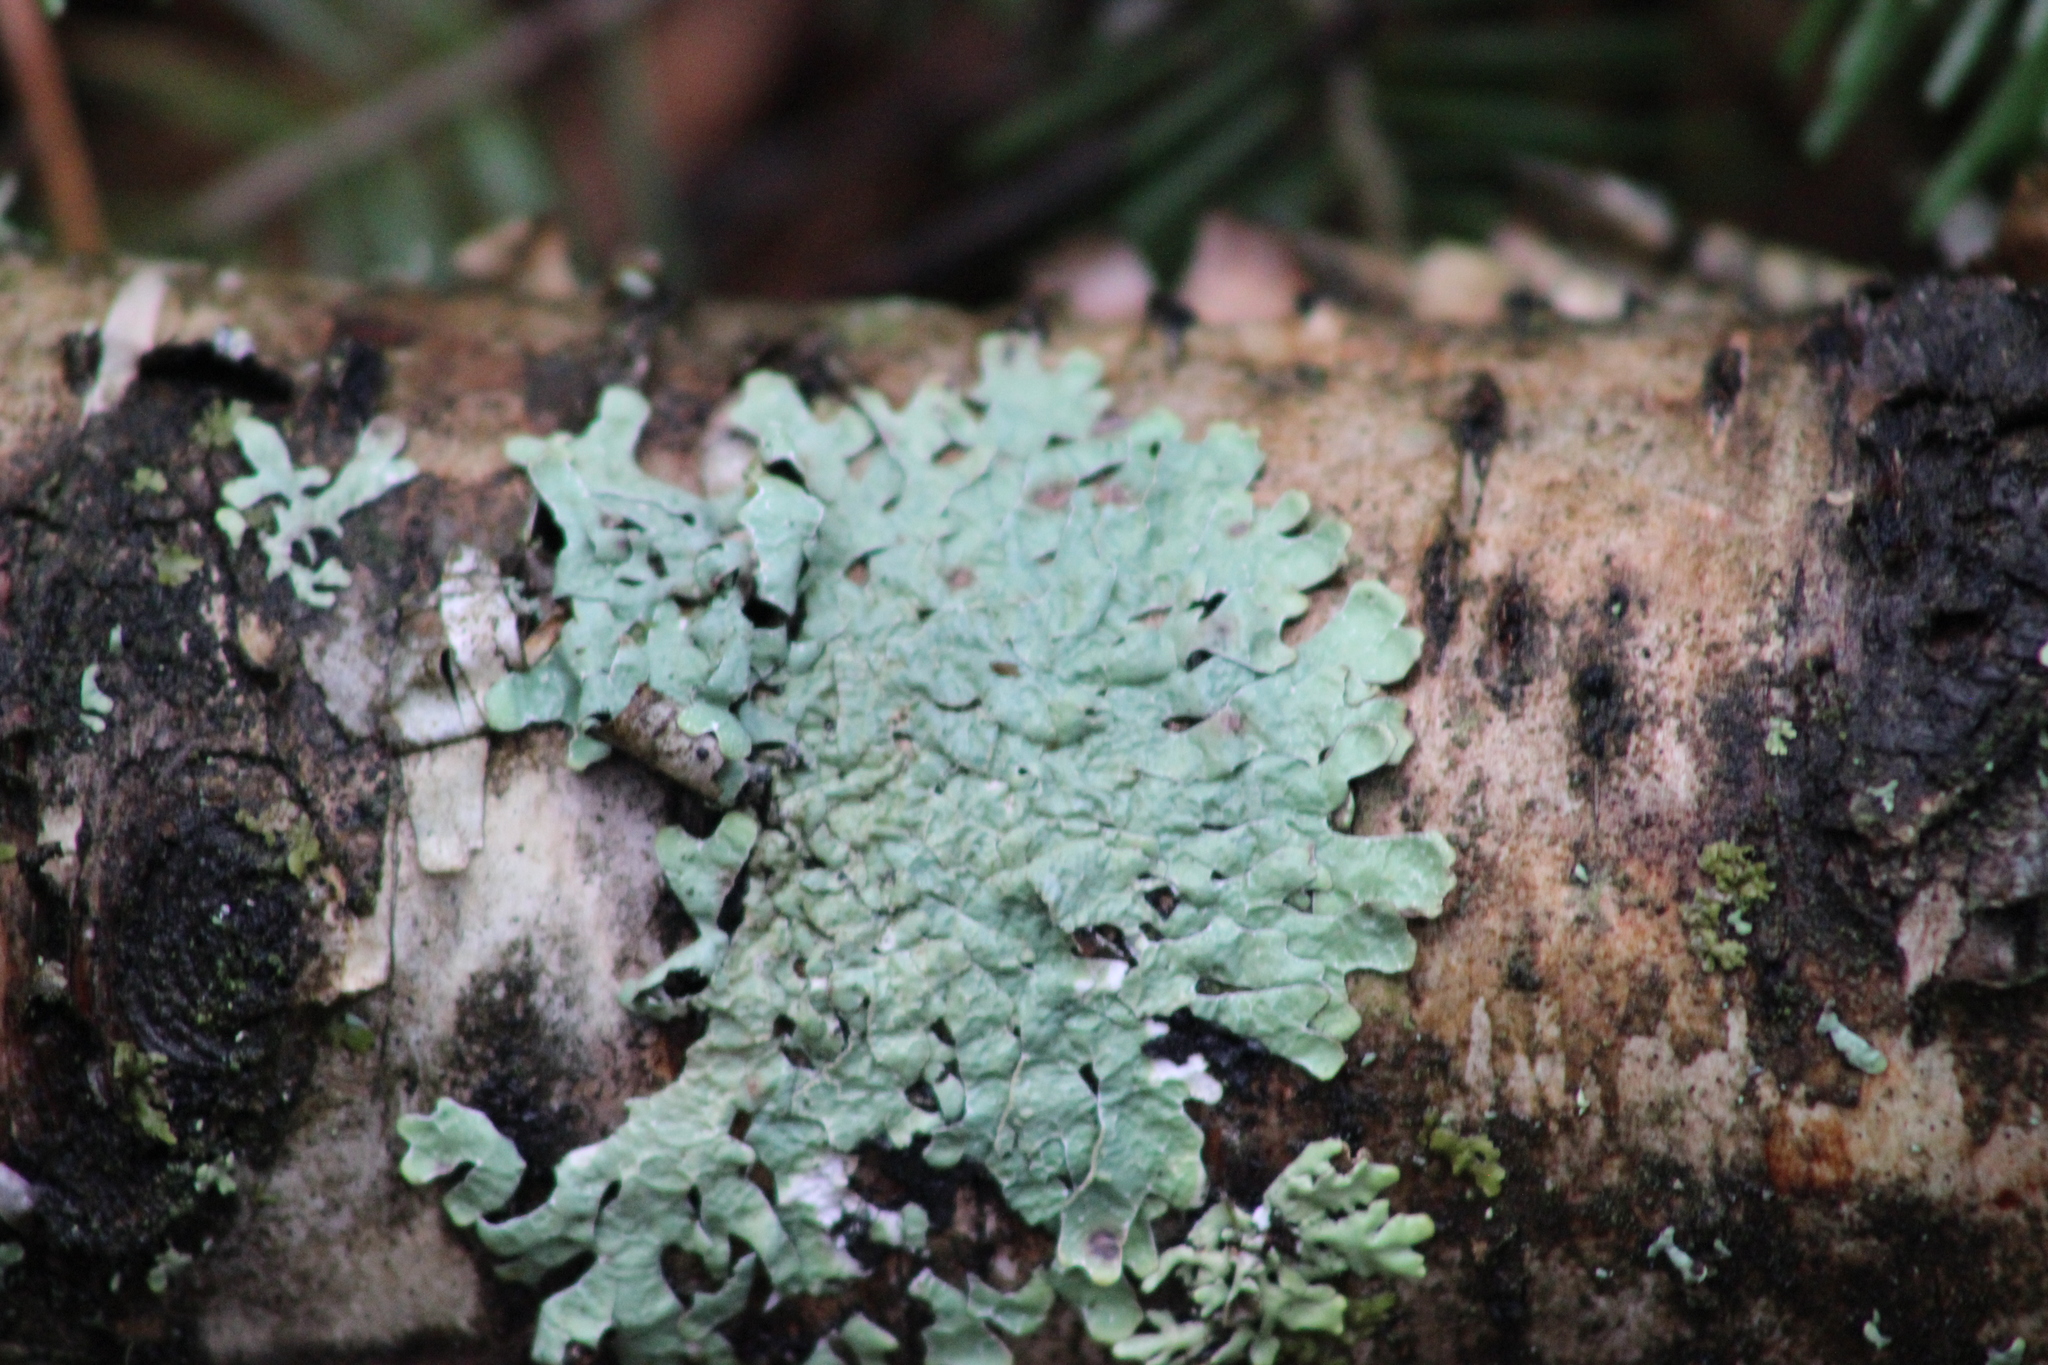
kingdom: Fungi
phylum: Ascomycota
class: Lecanoromycetes
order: Lecanorales
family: Parmeliaceae
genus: Parmelia
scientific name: Parmelia sulcata
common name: Netted shield lichen
